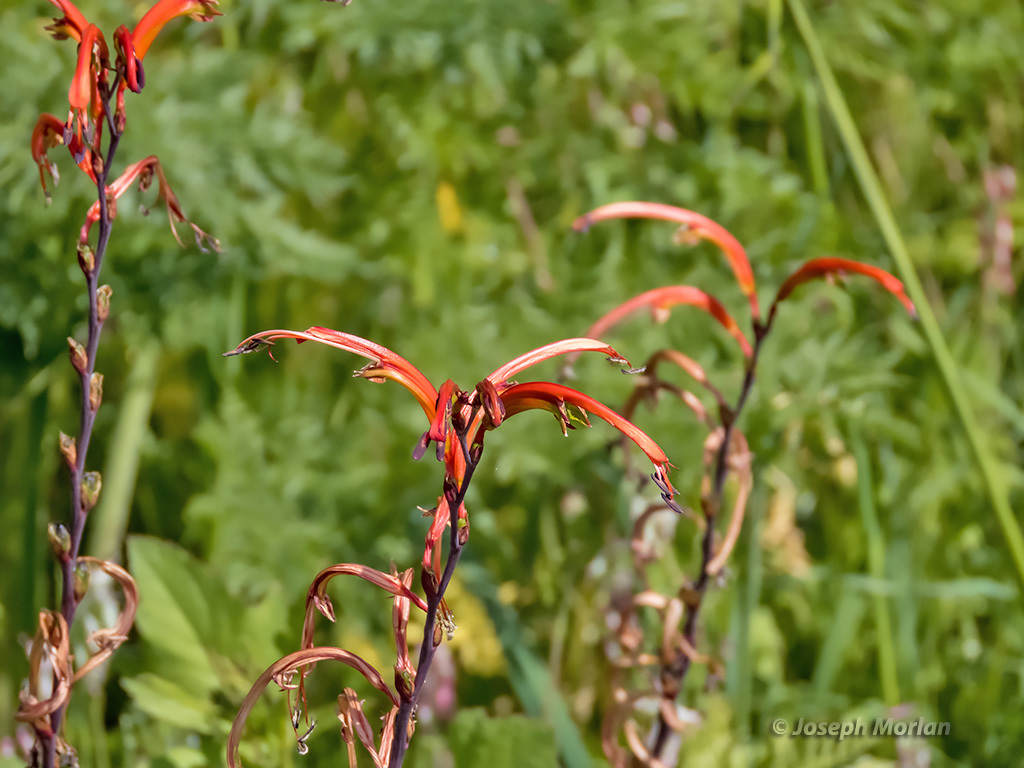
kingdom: Plantae
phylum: Tracheophyta
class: Liliopsida
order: Asparagales
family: Iridaceae
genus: Chasmanthe
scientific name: Chasmanthe bicolor
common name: Bicolor cobra lily
